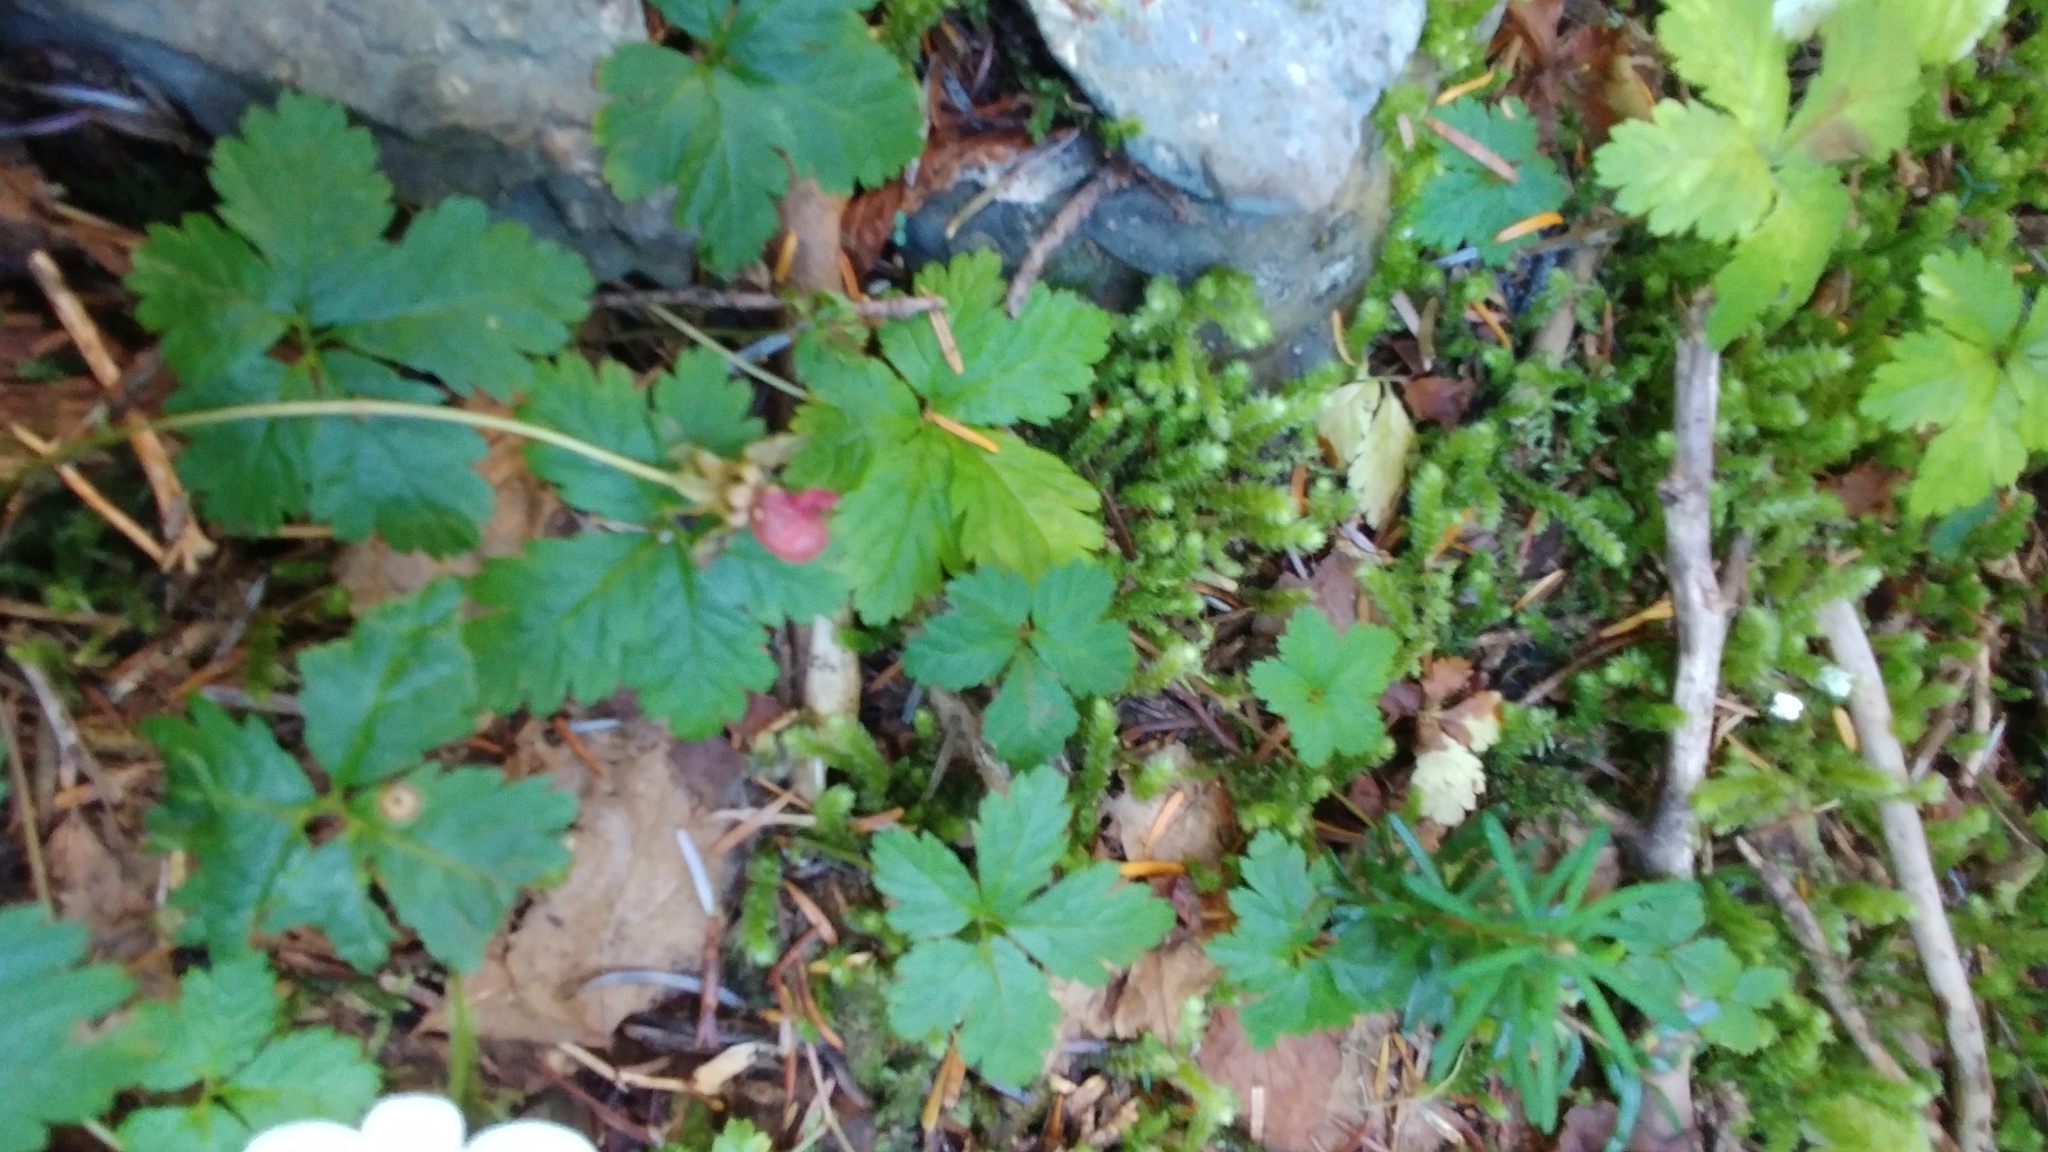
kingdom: Plantae
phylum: Tracheophyta
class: Magnoliopsida
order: Rosales
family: Rosaceae
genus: Rubus
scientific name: Rubus pedatus
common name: Creeping raspberry
